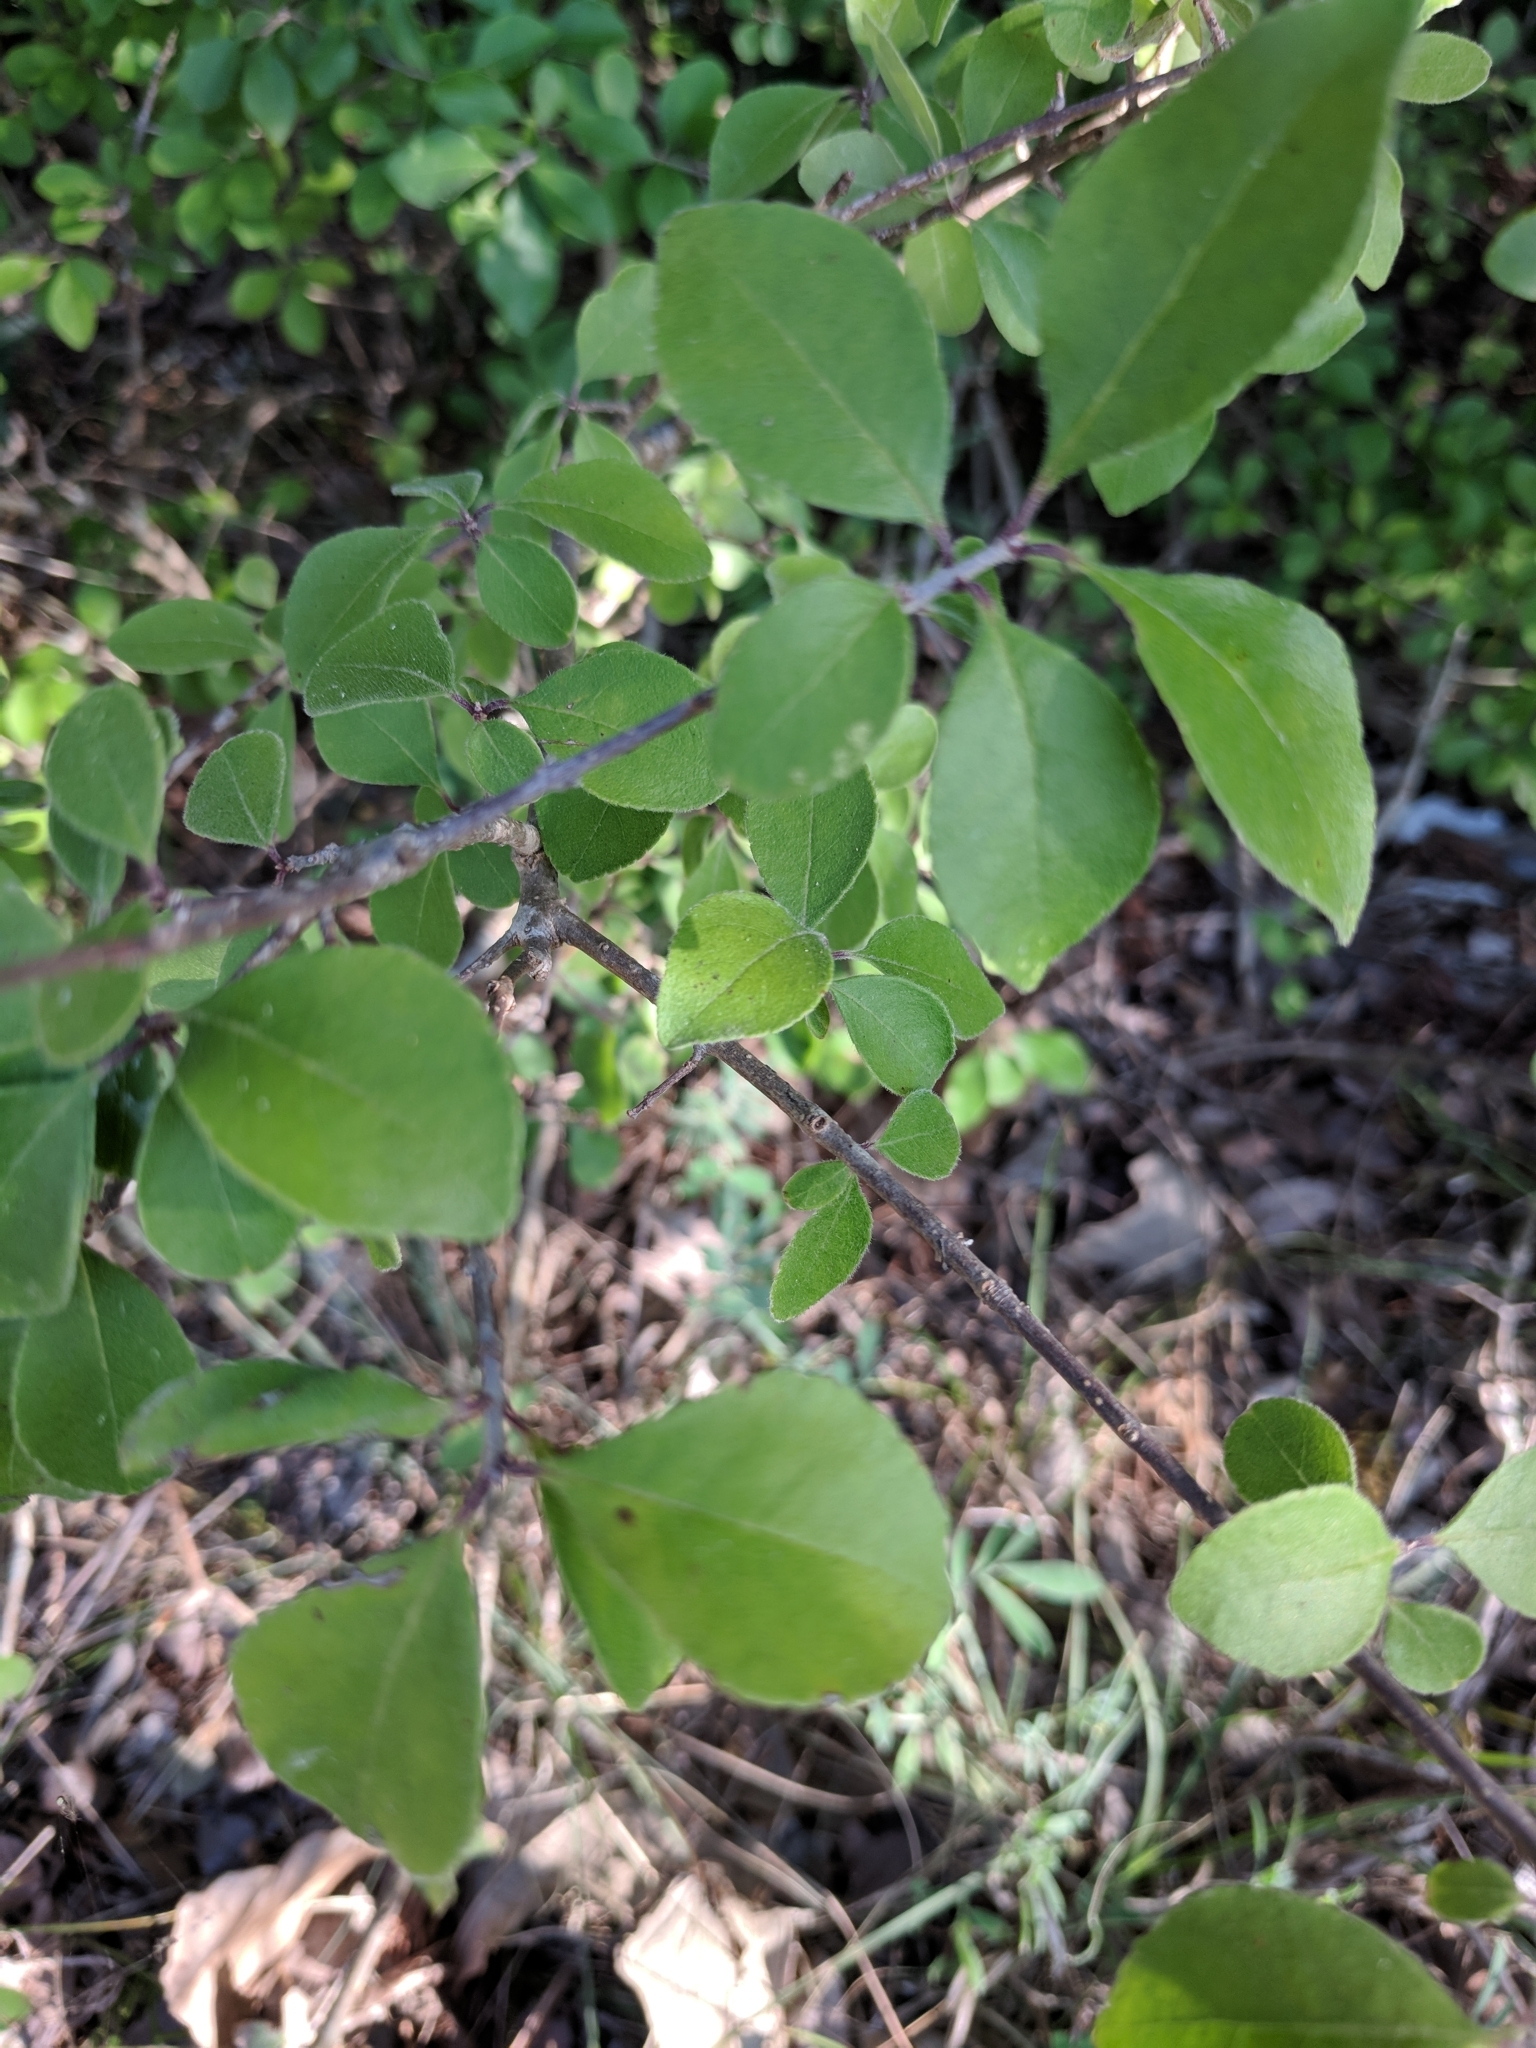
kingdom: Plantae
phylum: Tracheophyta
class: Magnoliopsida
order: Lamiales
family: Oleaceae
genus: Forestiera
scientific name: Forestiera pubescens
